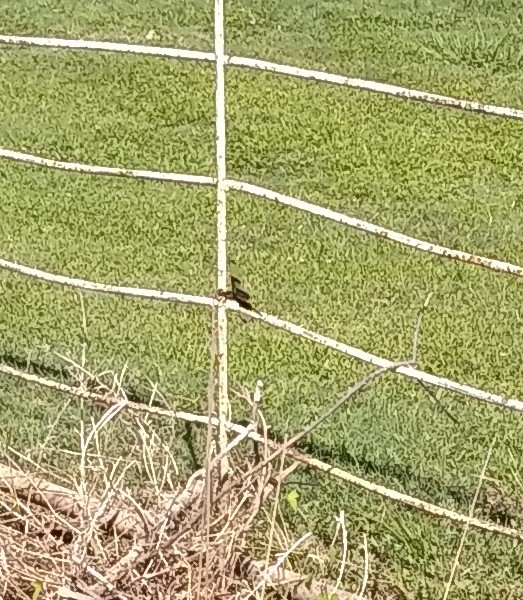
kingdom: Animalia
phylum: Arthropoda
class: Insecta
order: Odonata
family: Libellulidae
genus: Libellula
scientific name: Libellula luctuosa
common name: Widow skimmer
